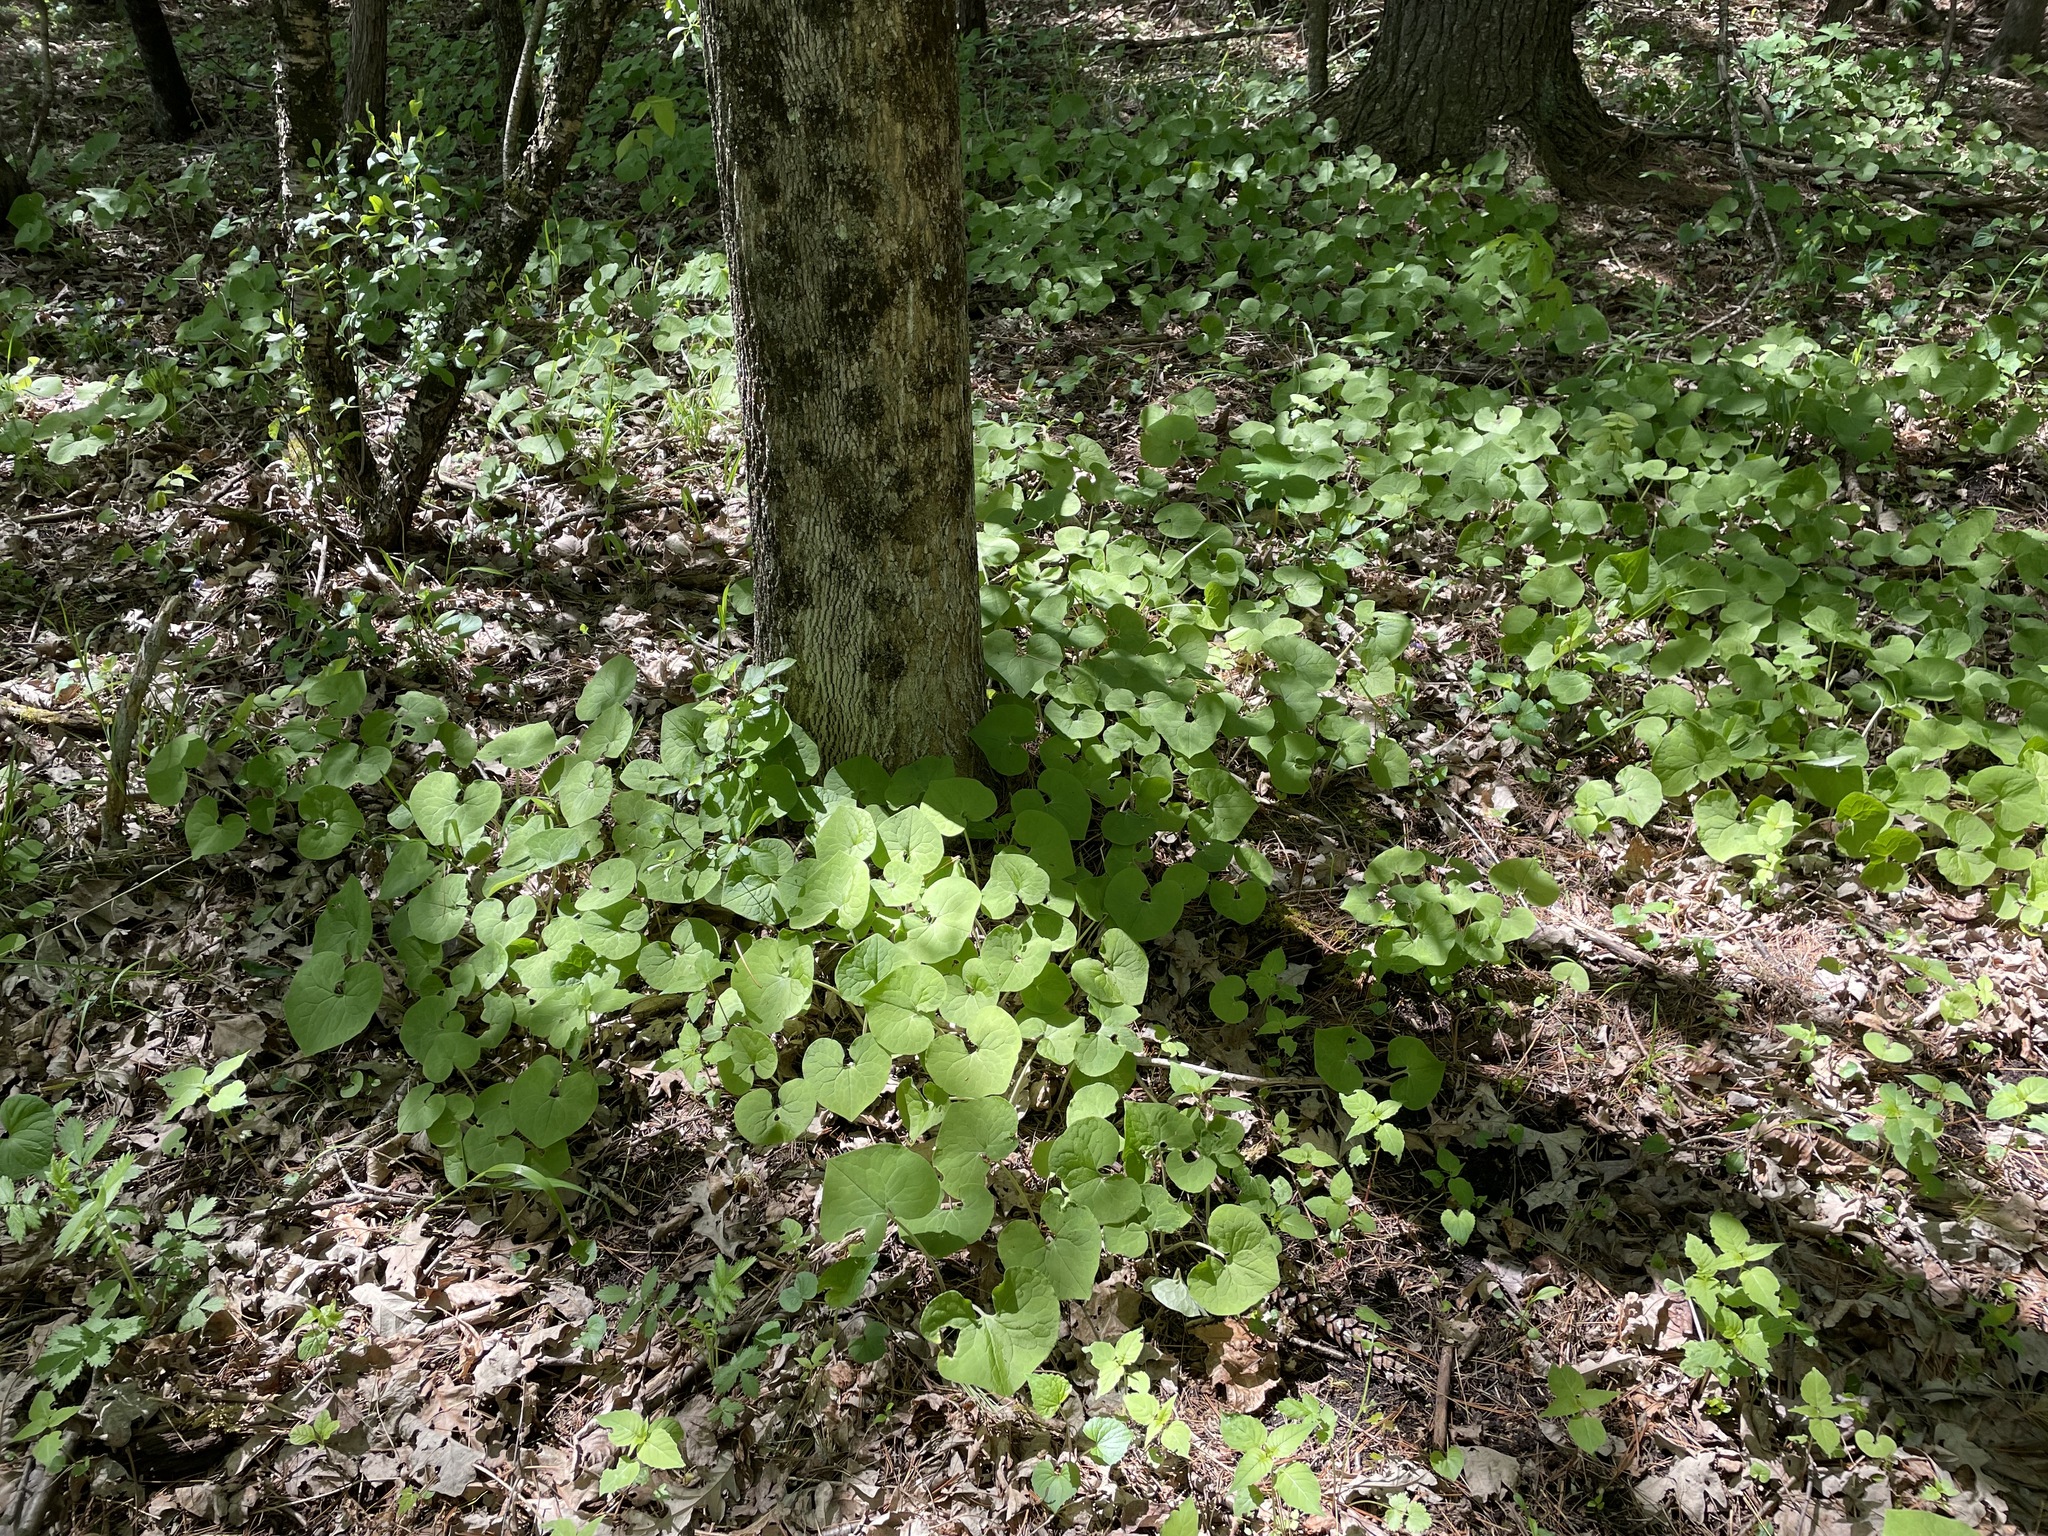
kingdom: Plantae
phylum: Tracheophyta
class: Magnoliopsida
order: Piperales
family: Aristolochiaceae
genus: Asarum
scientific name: Asarum canadense
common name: Wild ginger
